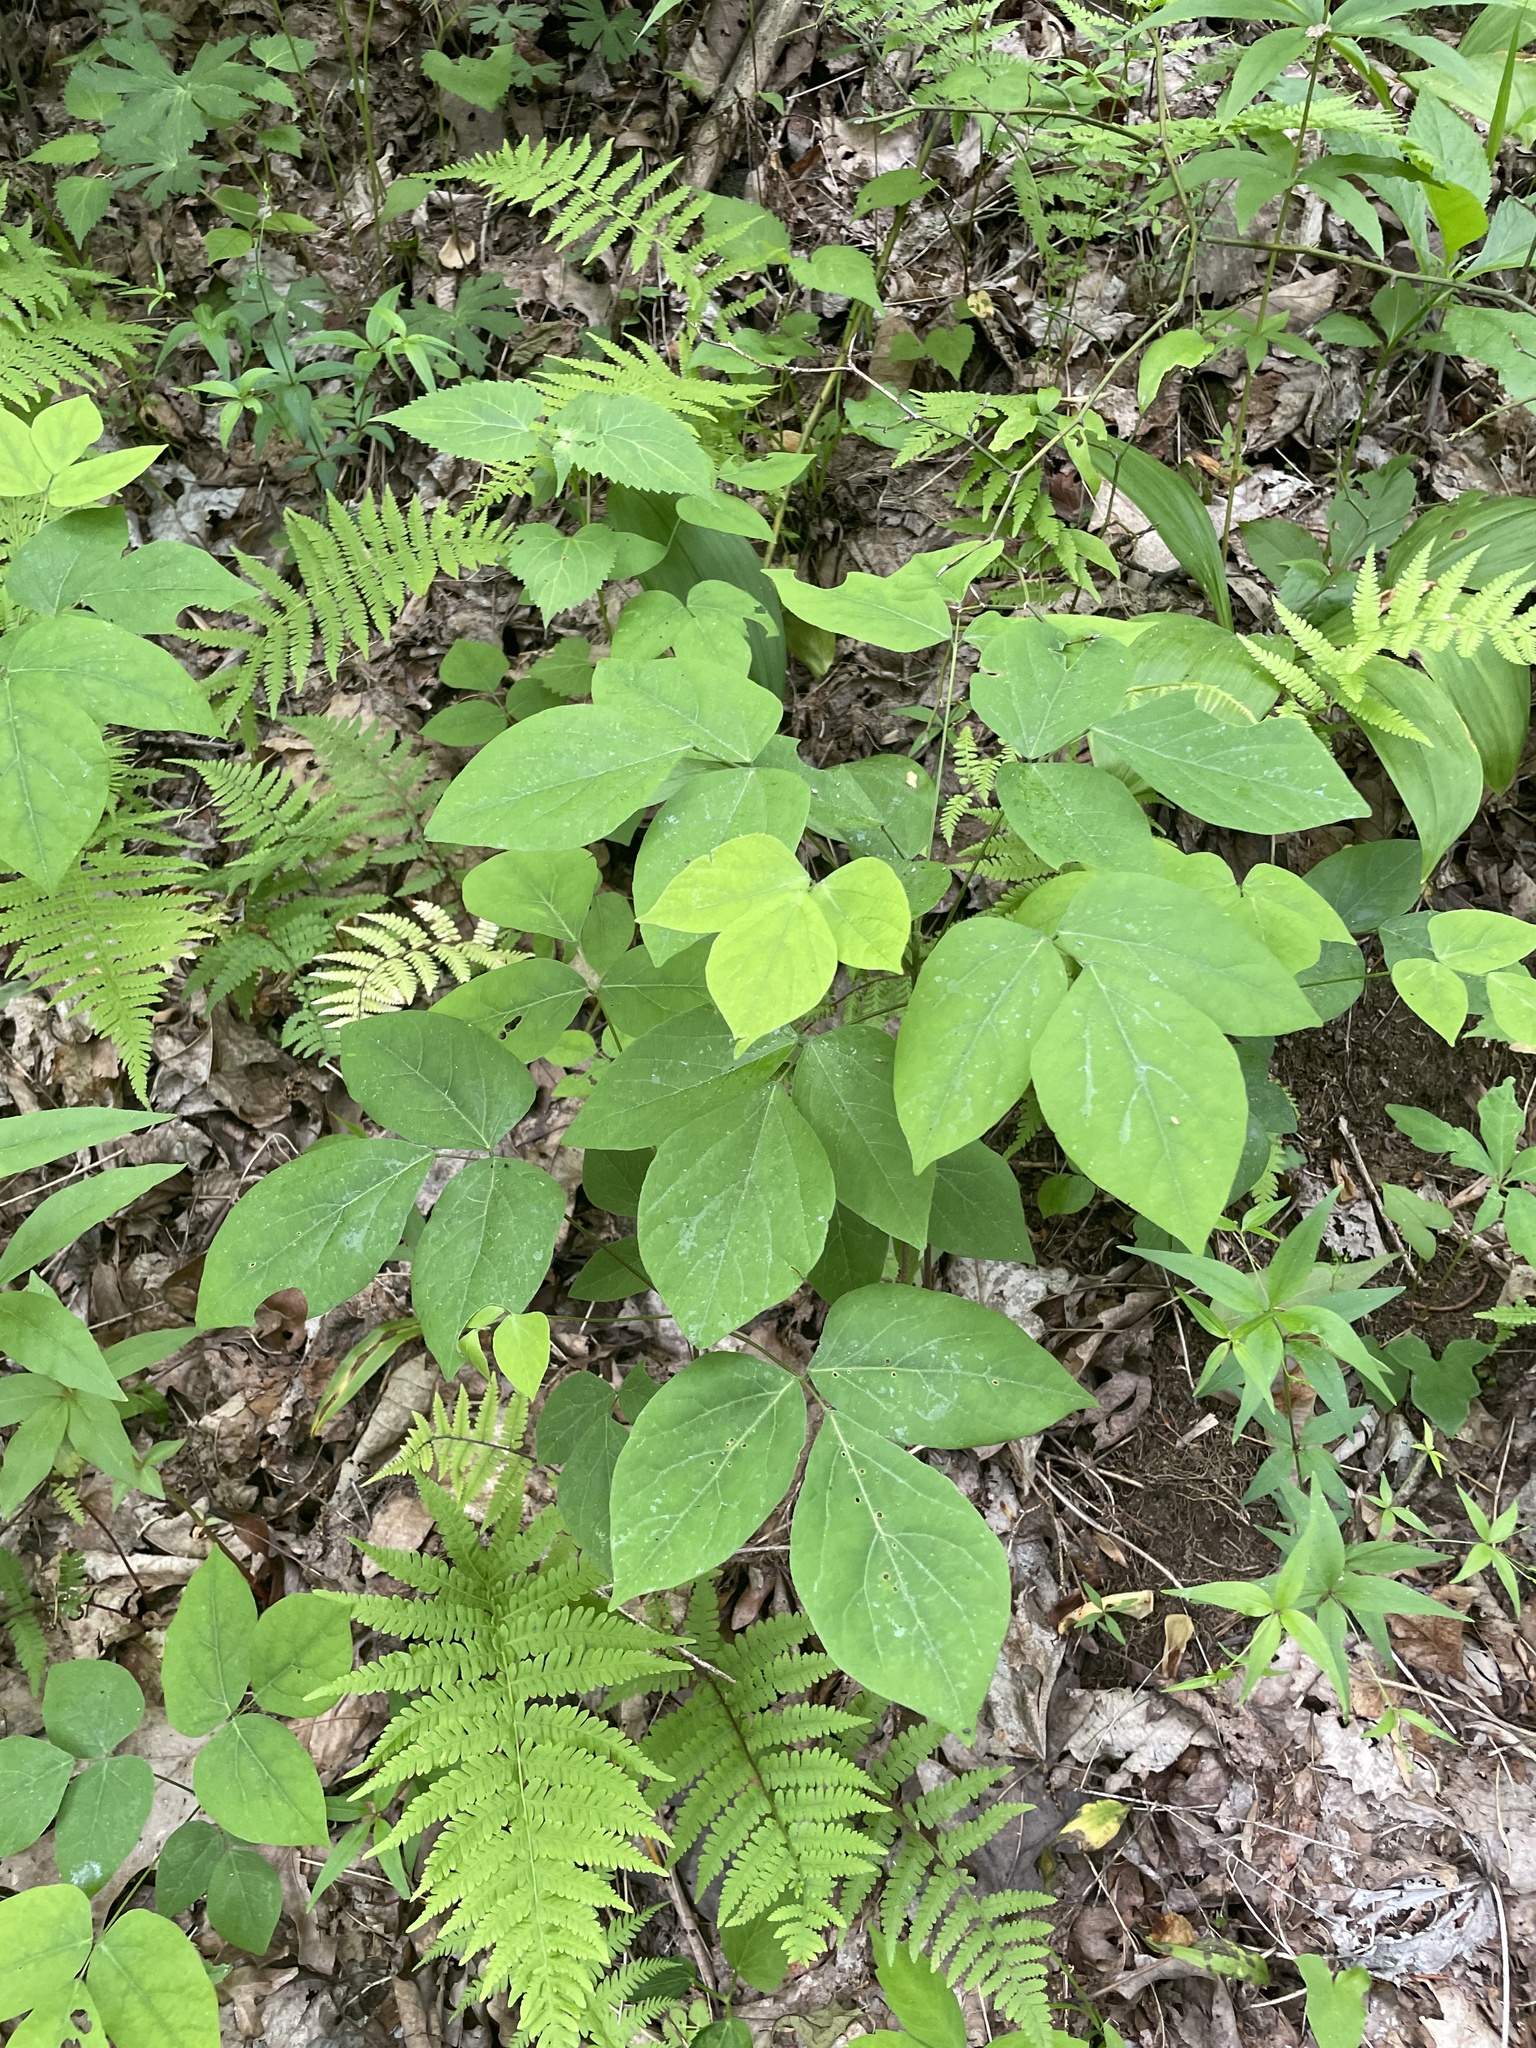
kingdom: Plantae
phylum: Tracheophyta
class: Magnoliopsida
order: Fabales
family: Fabaceae
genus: Hylodesmum
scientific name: Hylodesmum nudiflorum
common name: Bare-stemmed tick-trefoil
